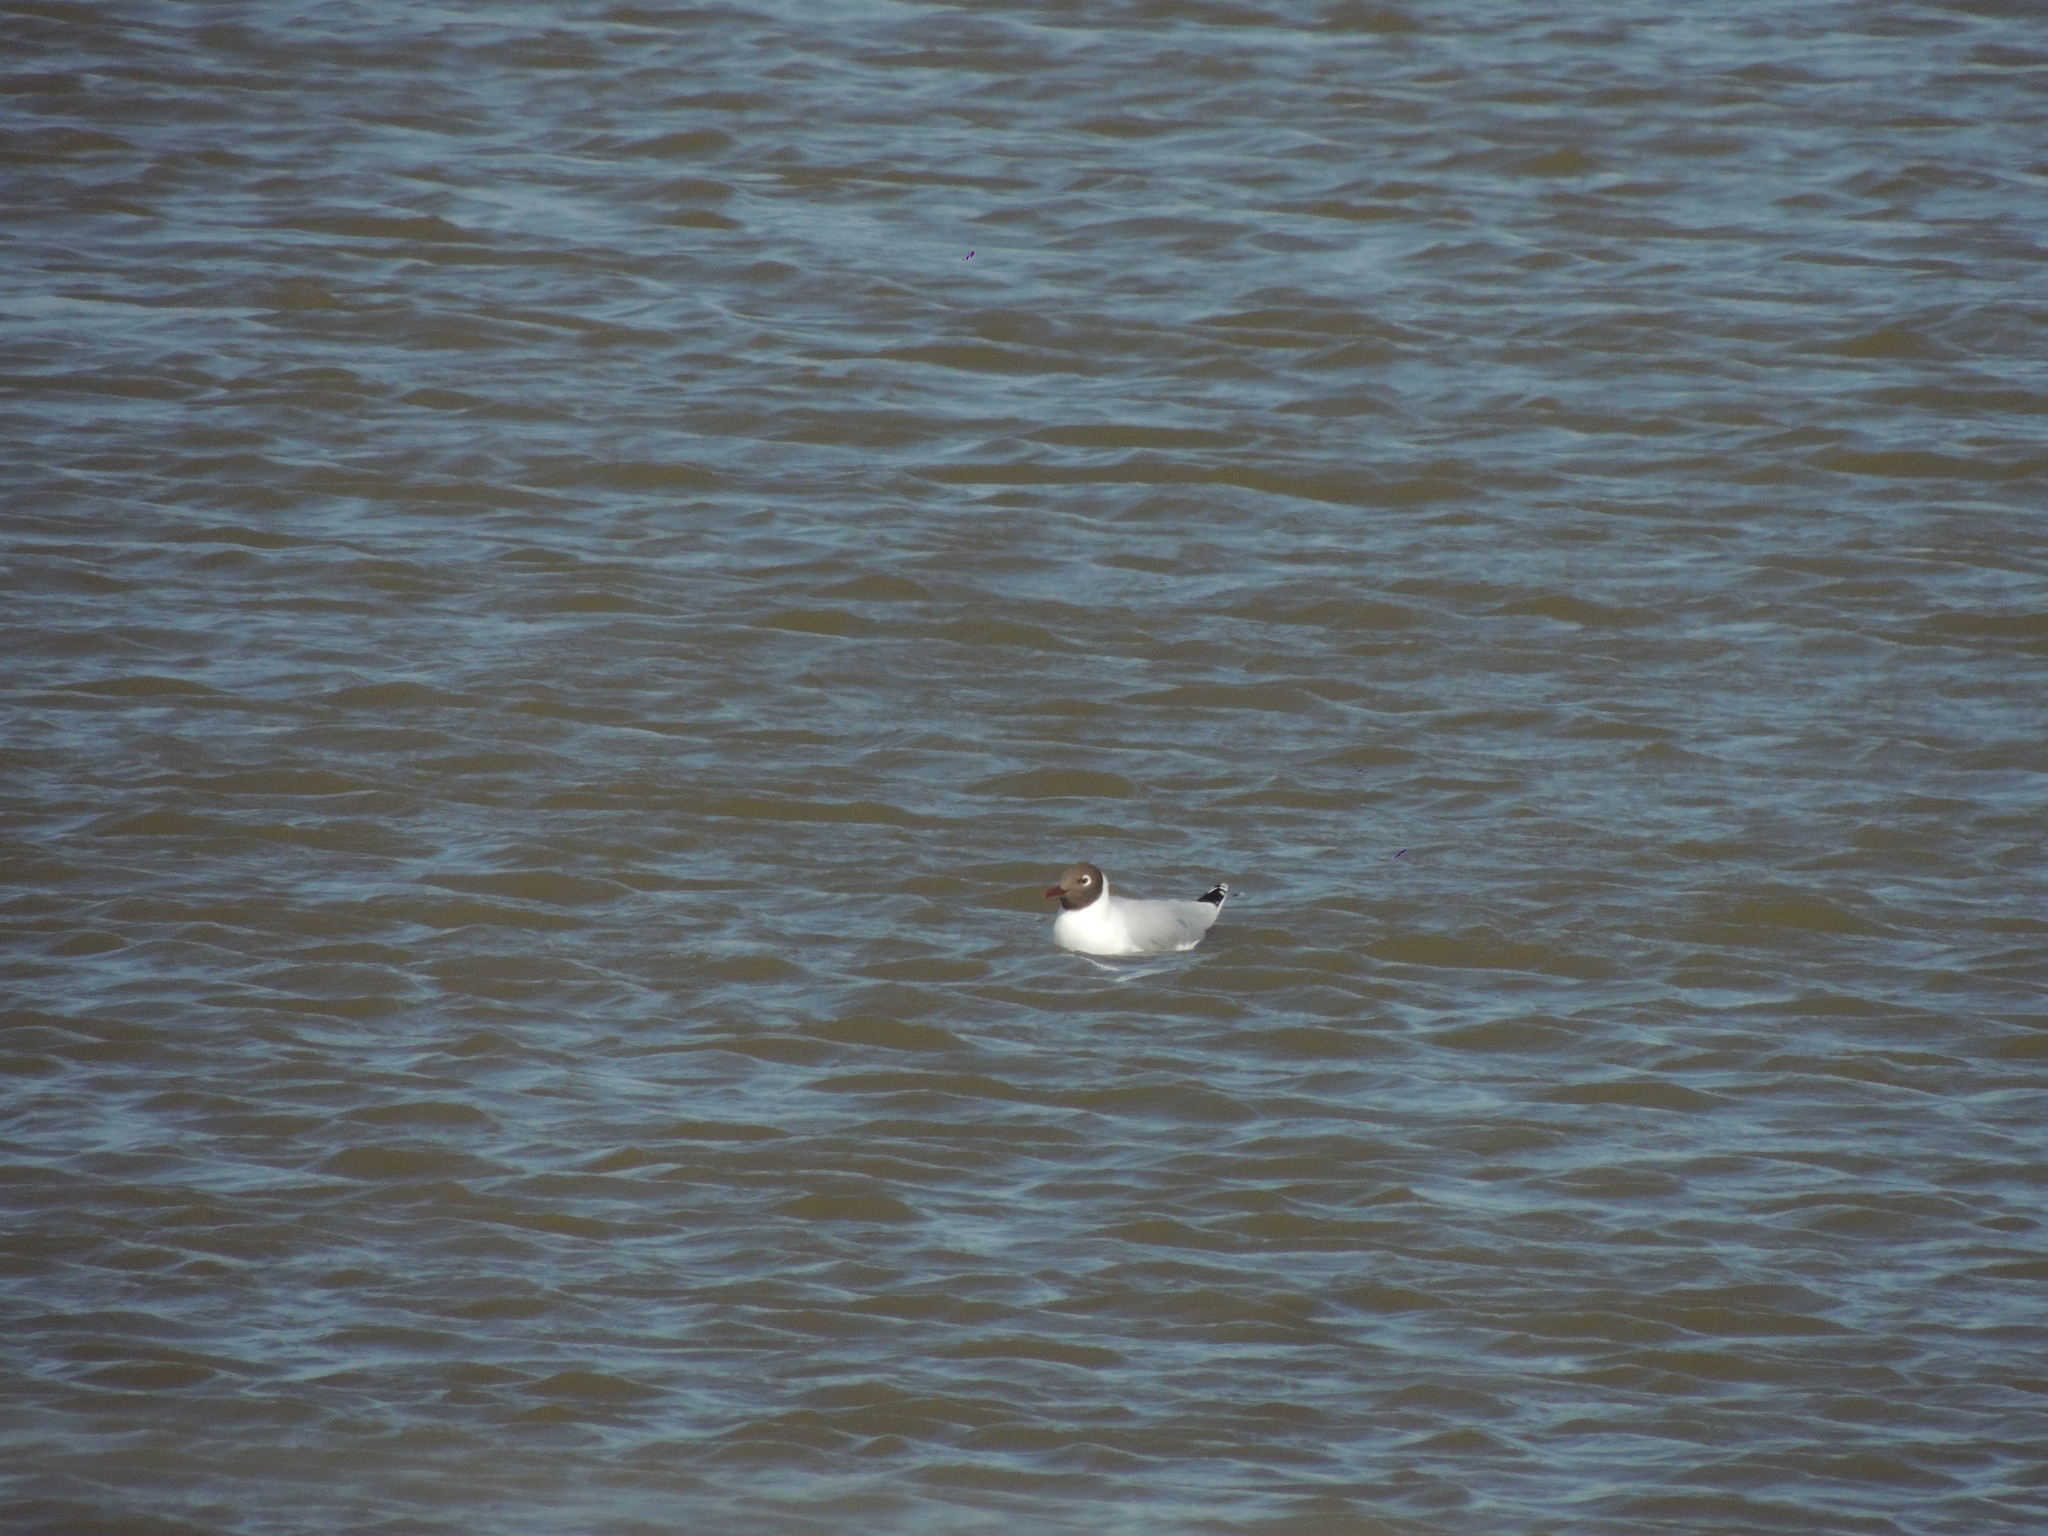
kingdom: Animalia
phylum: Chordata
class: Aves
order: Charadriiformes
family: Laridae
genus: Chroicocephalus
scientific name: Chroicocephalus maculipennis
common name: Brown-hooded gull
